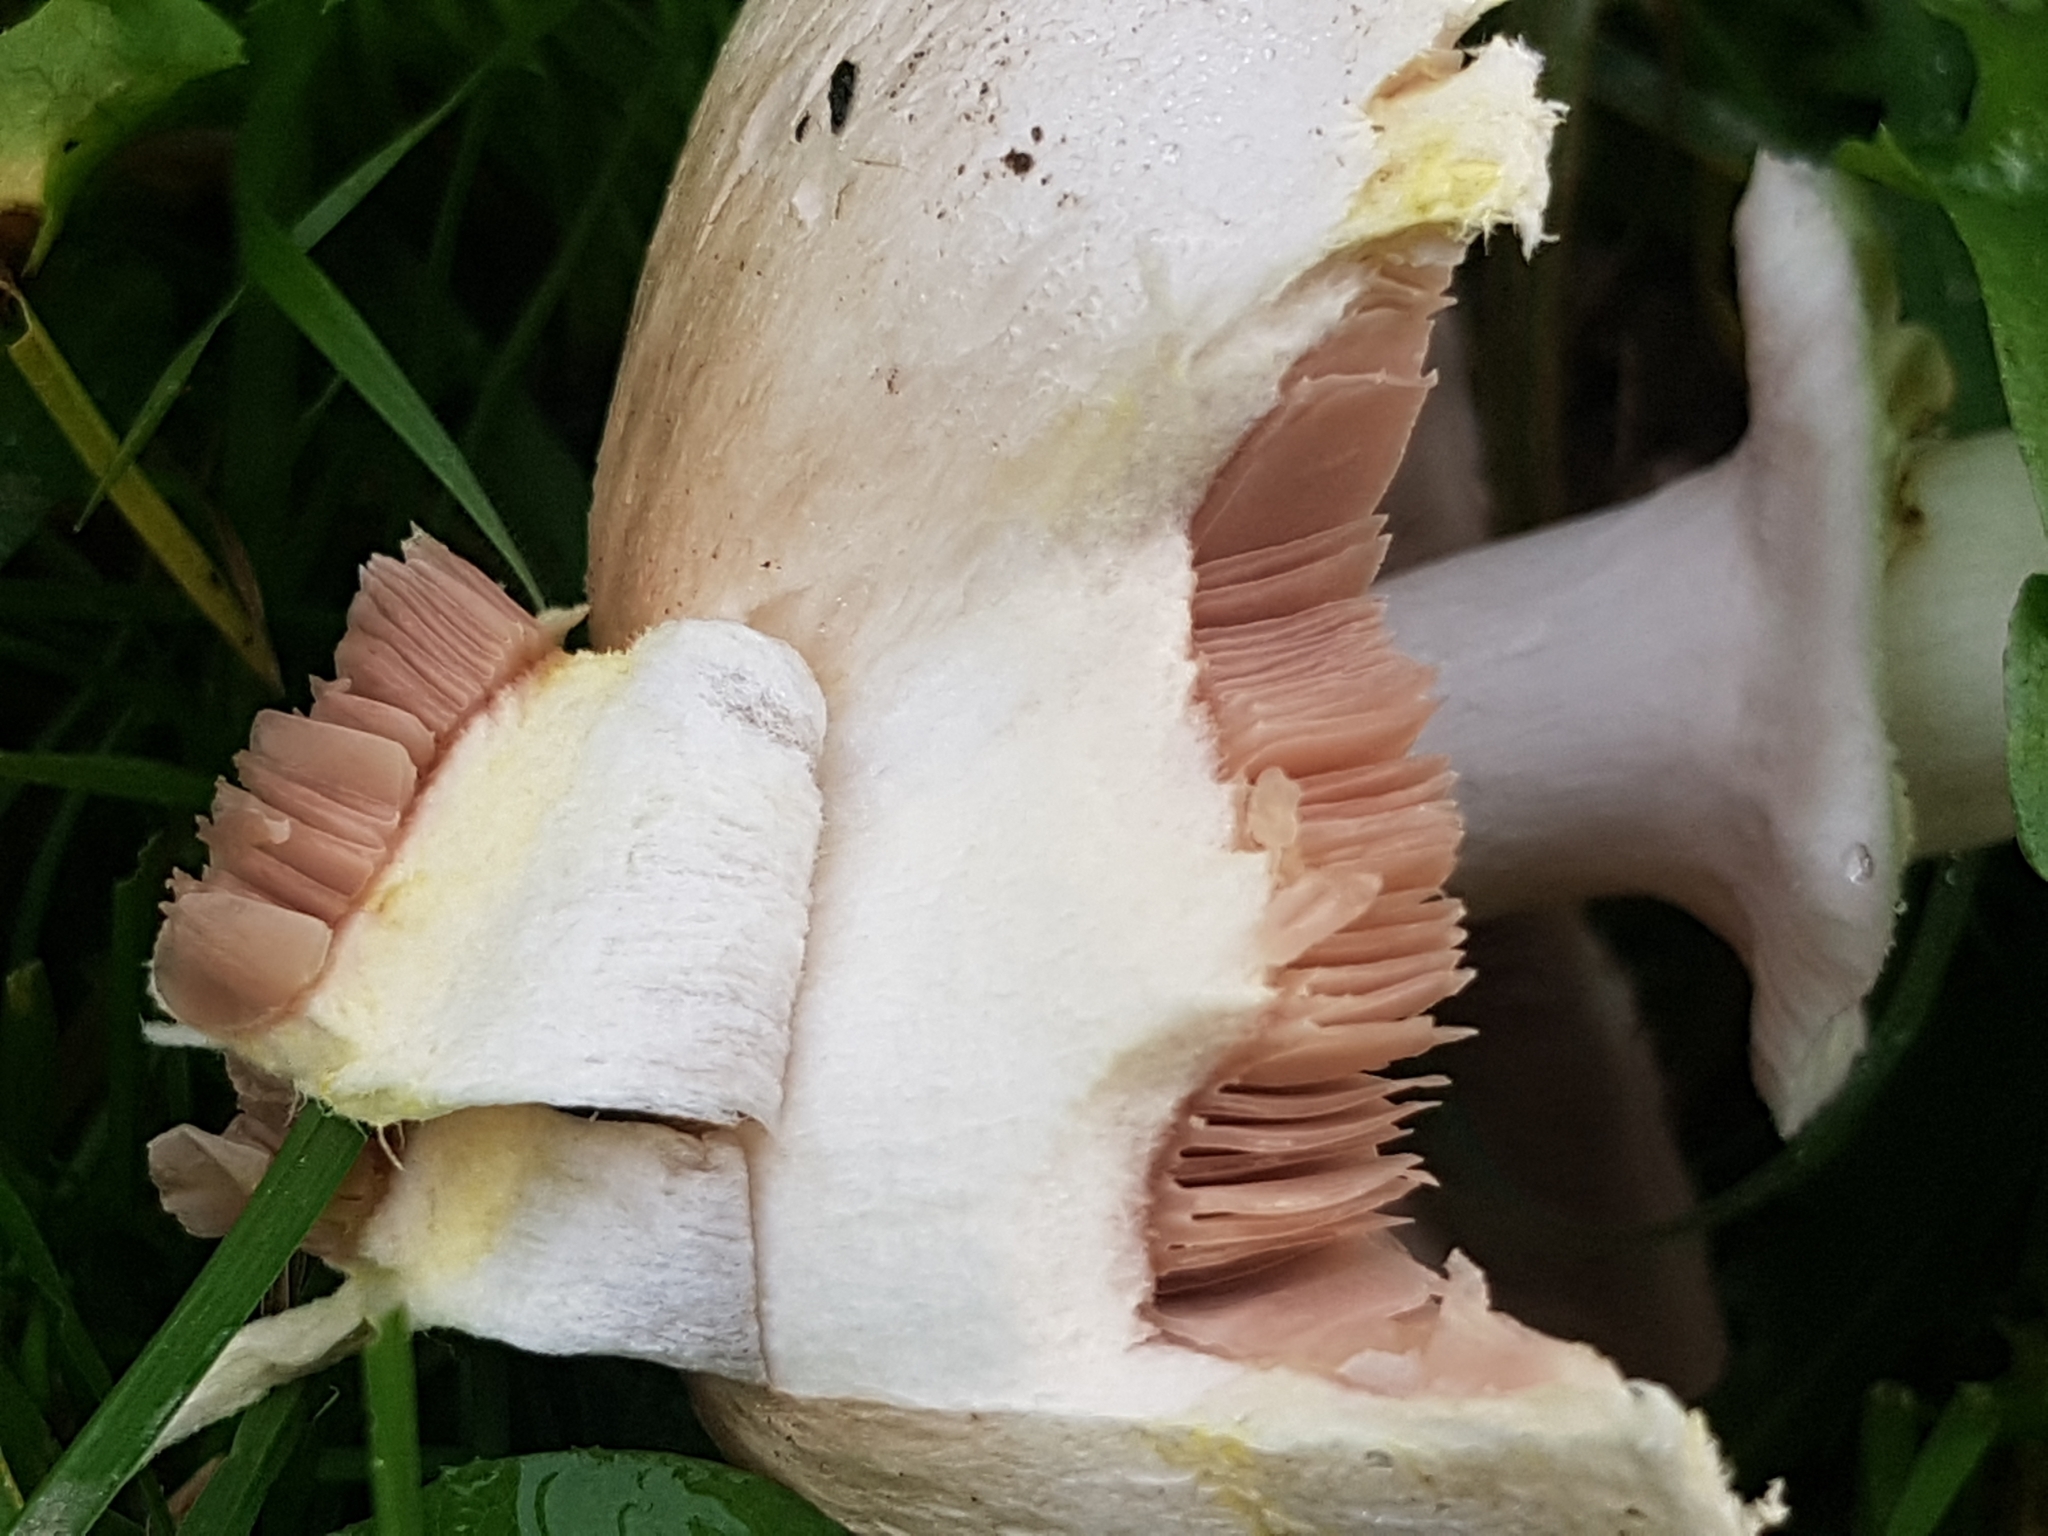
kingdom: Fungi
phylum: Basidiomycota
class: Agaricomycetes
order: Agaricales
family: Agaricaceae
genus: Agaricus
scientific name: Agaricus xanthodermus
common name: Yellow stainer
